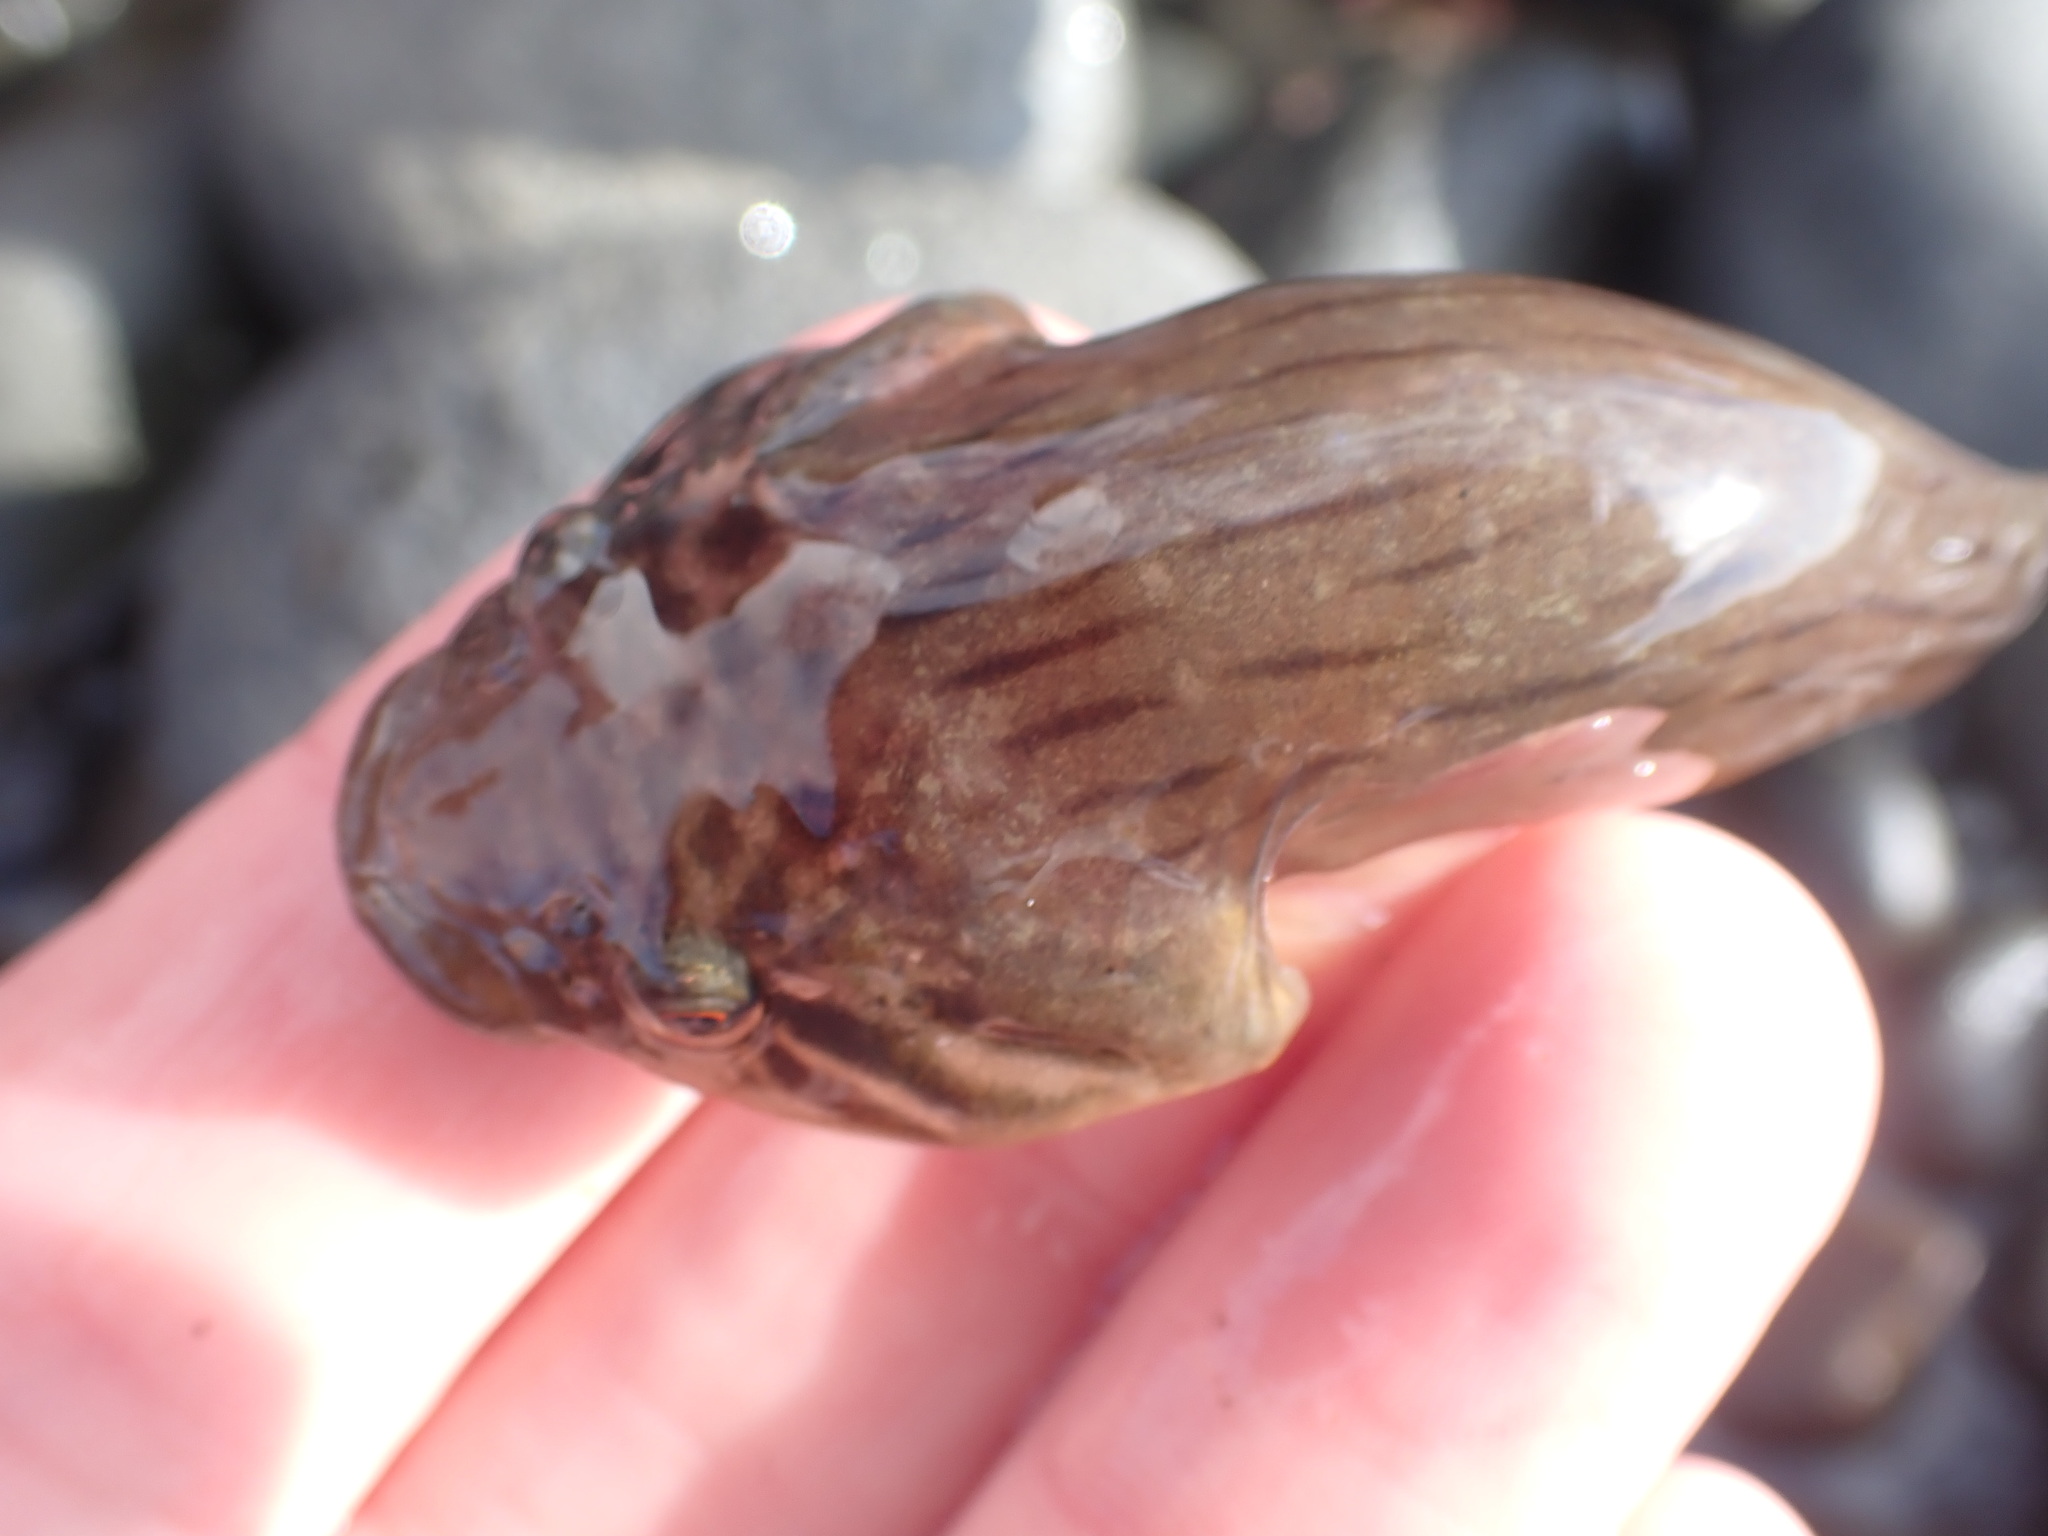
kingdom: Animalia
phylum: Chordata
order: Gobiesociformes
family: Gobiesocidae
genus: Trachelochismus
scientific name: Trachelochismus pinnulatus
